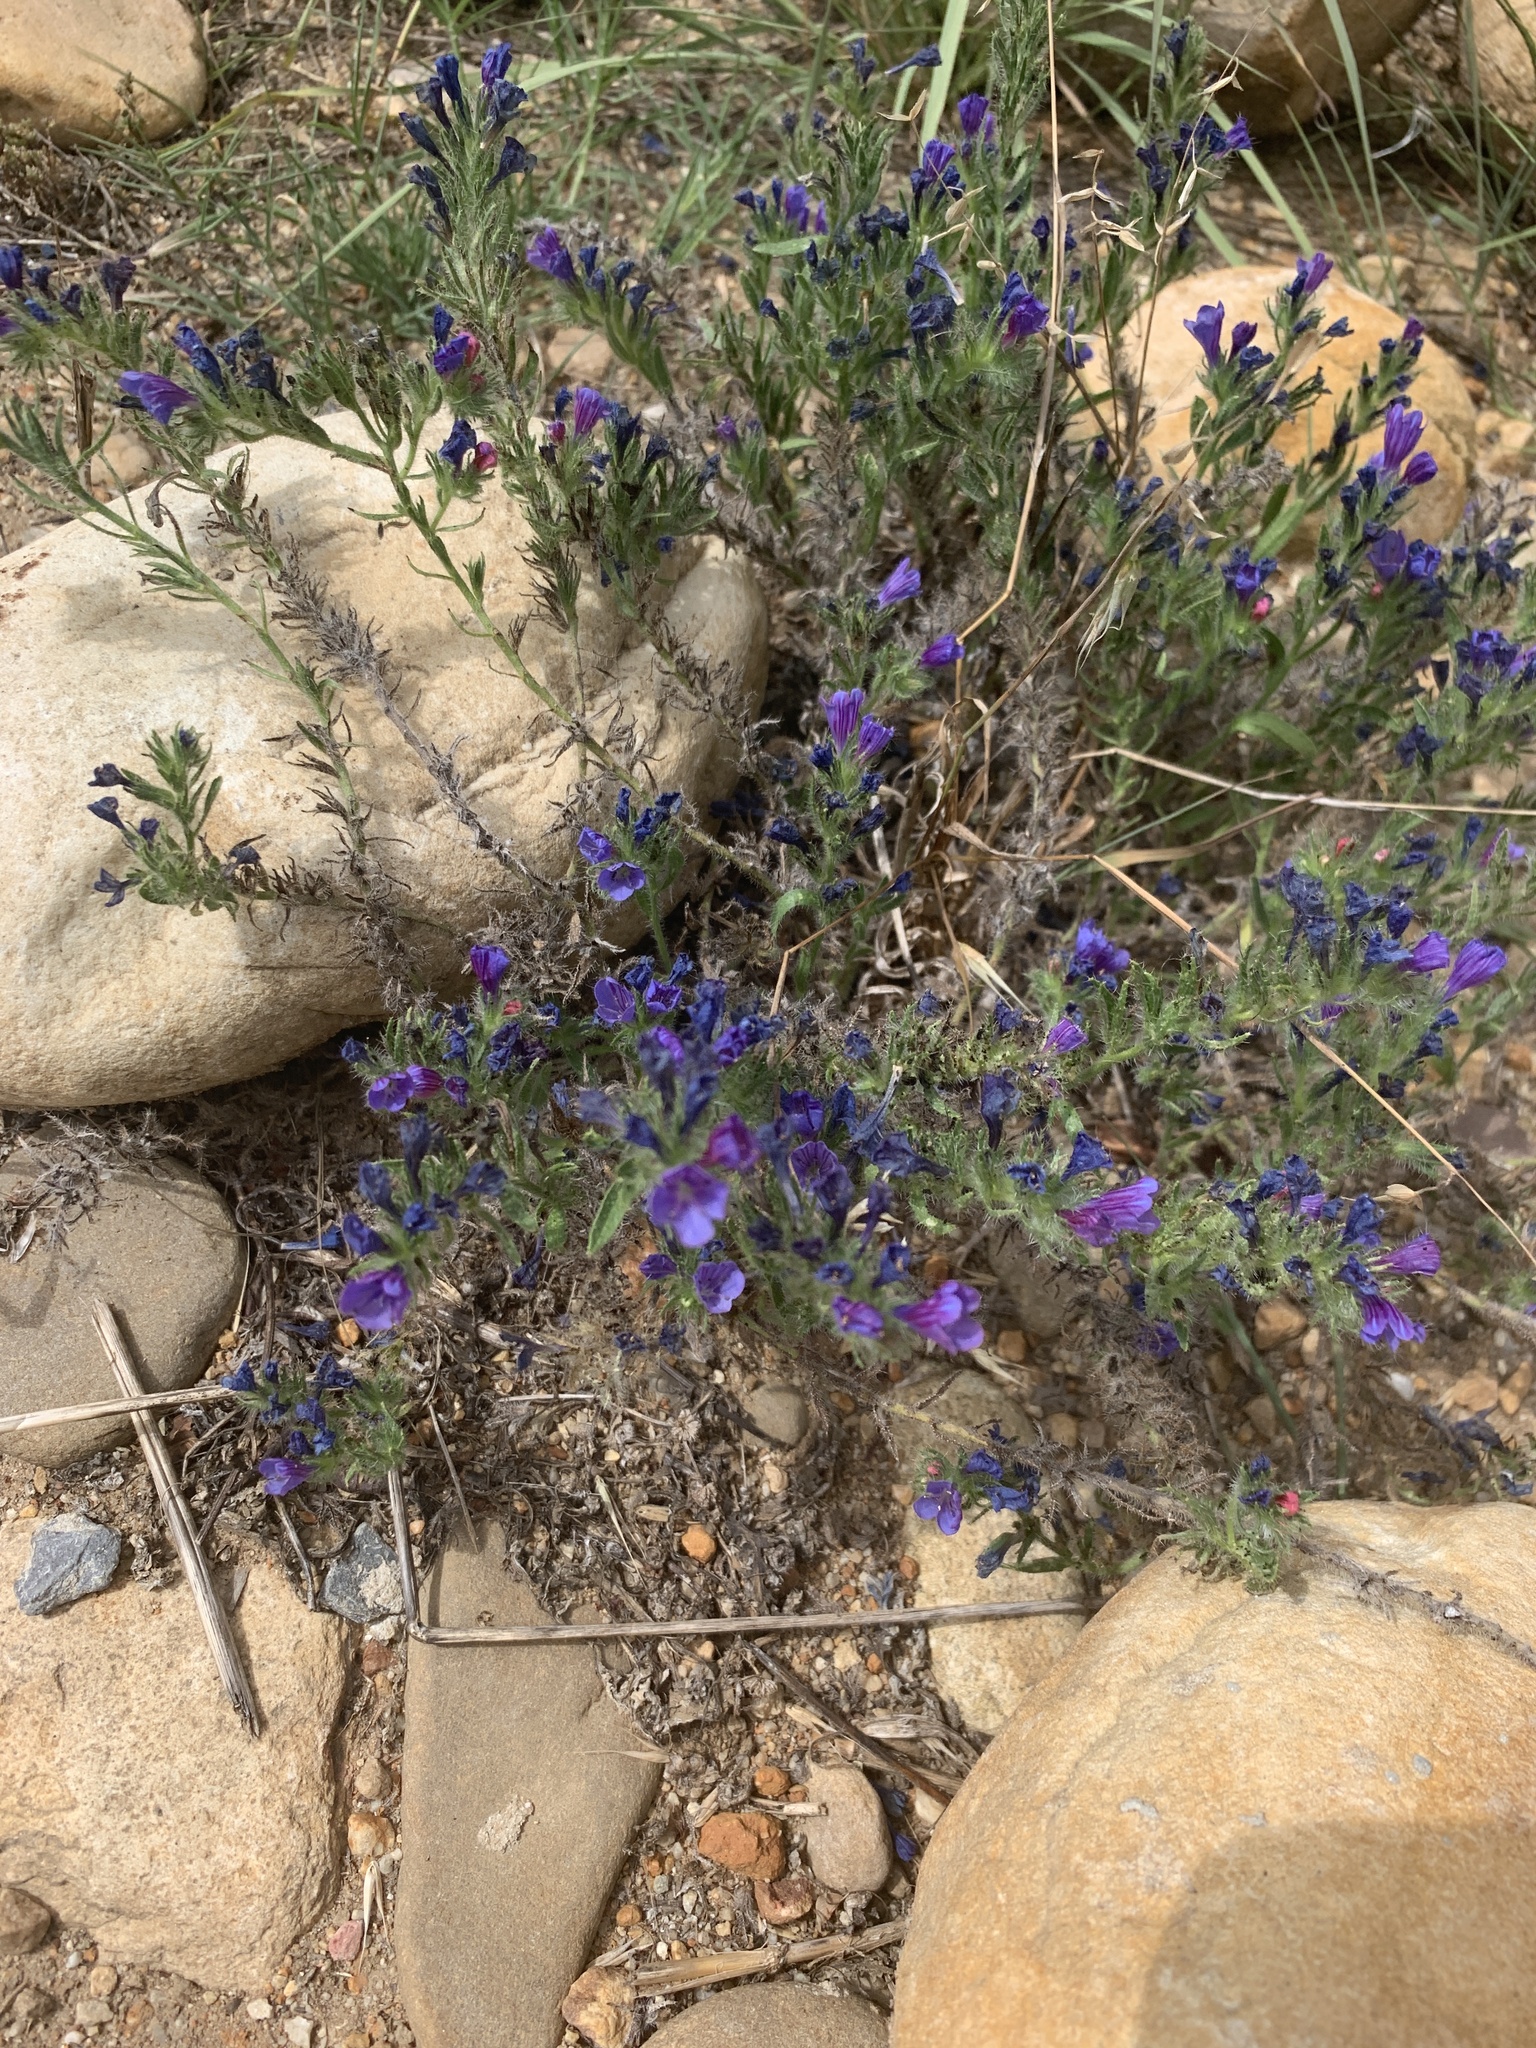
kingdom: Plantae
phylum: Tracheophyta
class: Magnoliopsida
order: Boraginales
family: Boraginaceae
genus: Echium
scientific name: Echium plantagineum
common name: Purple viper's-bugloss
